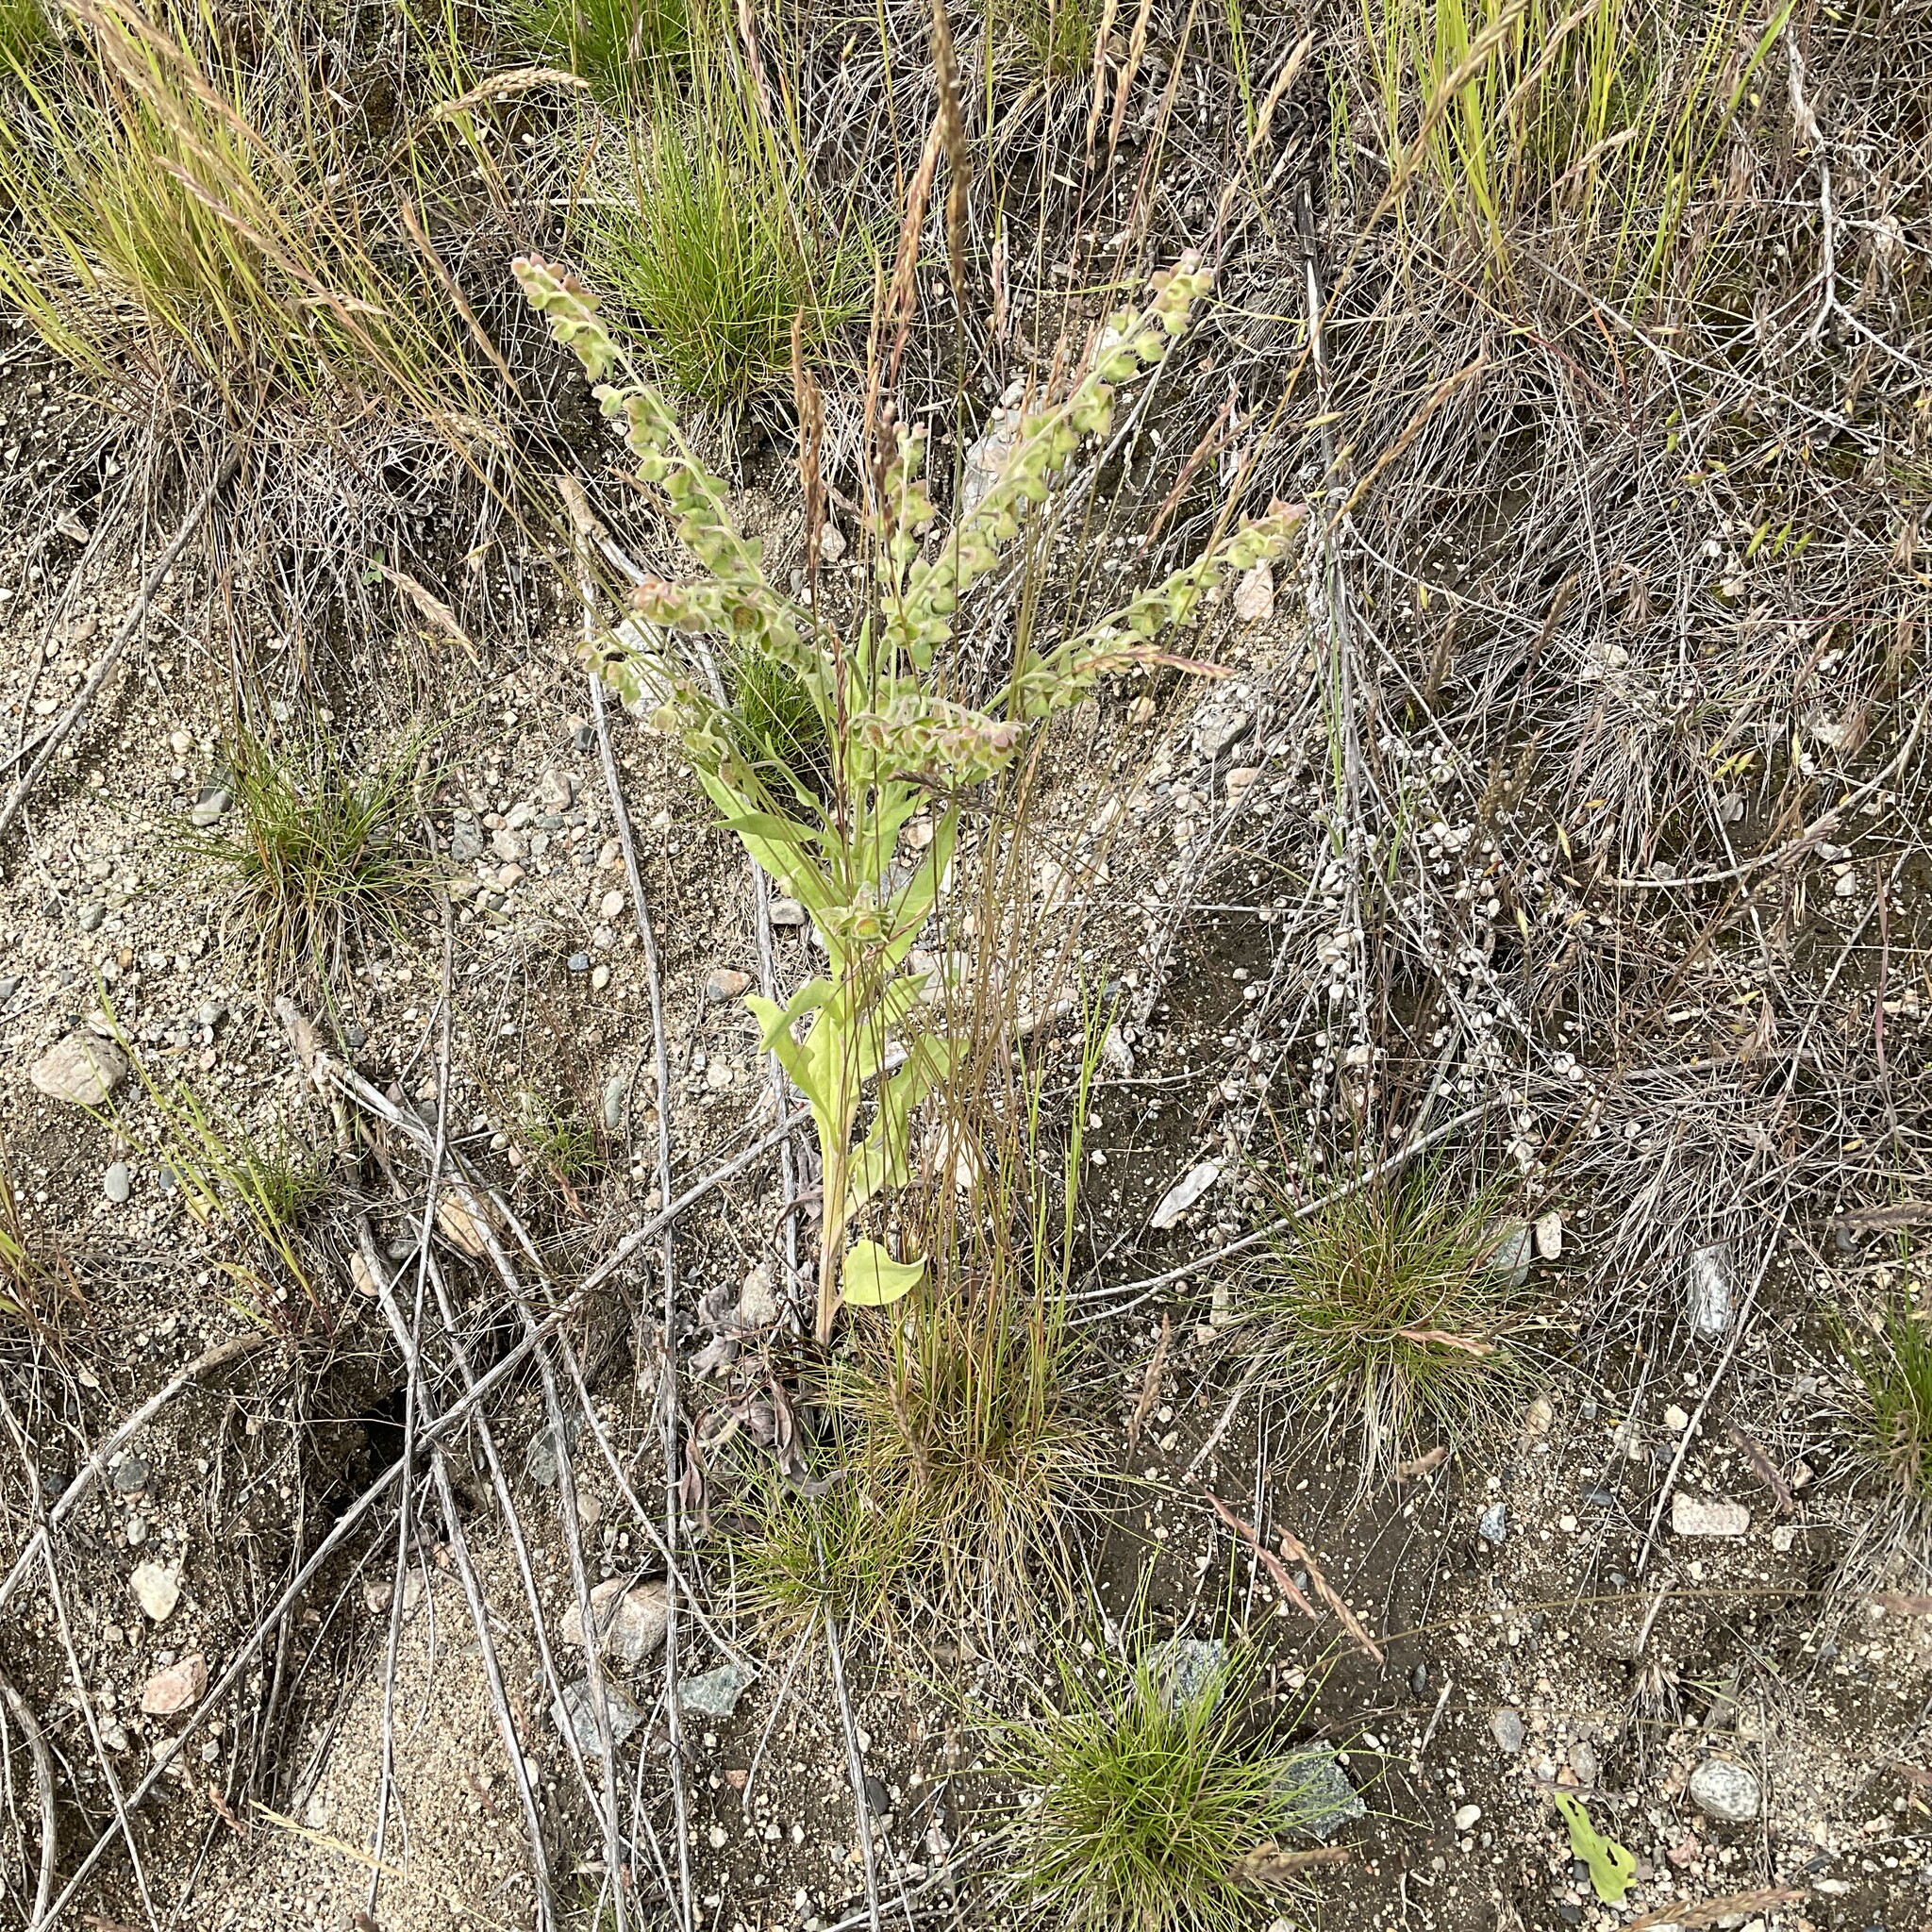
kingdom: Plantae
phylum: Tracheophyta
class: Magnoliopsida
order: Boraginales
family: Boraginaceae
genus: Cynoglossum
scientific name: Cynoglossum officinale
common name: Hound's-tongue
